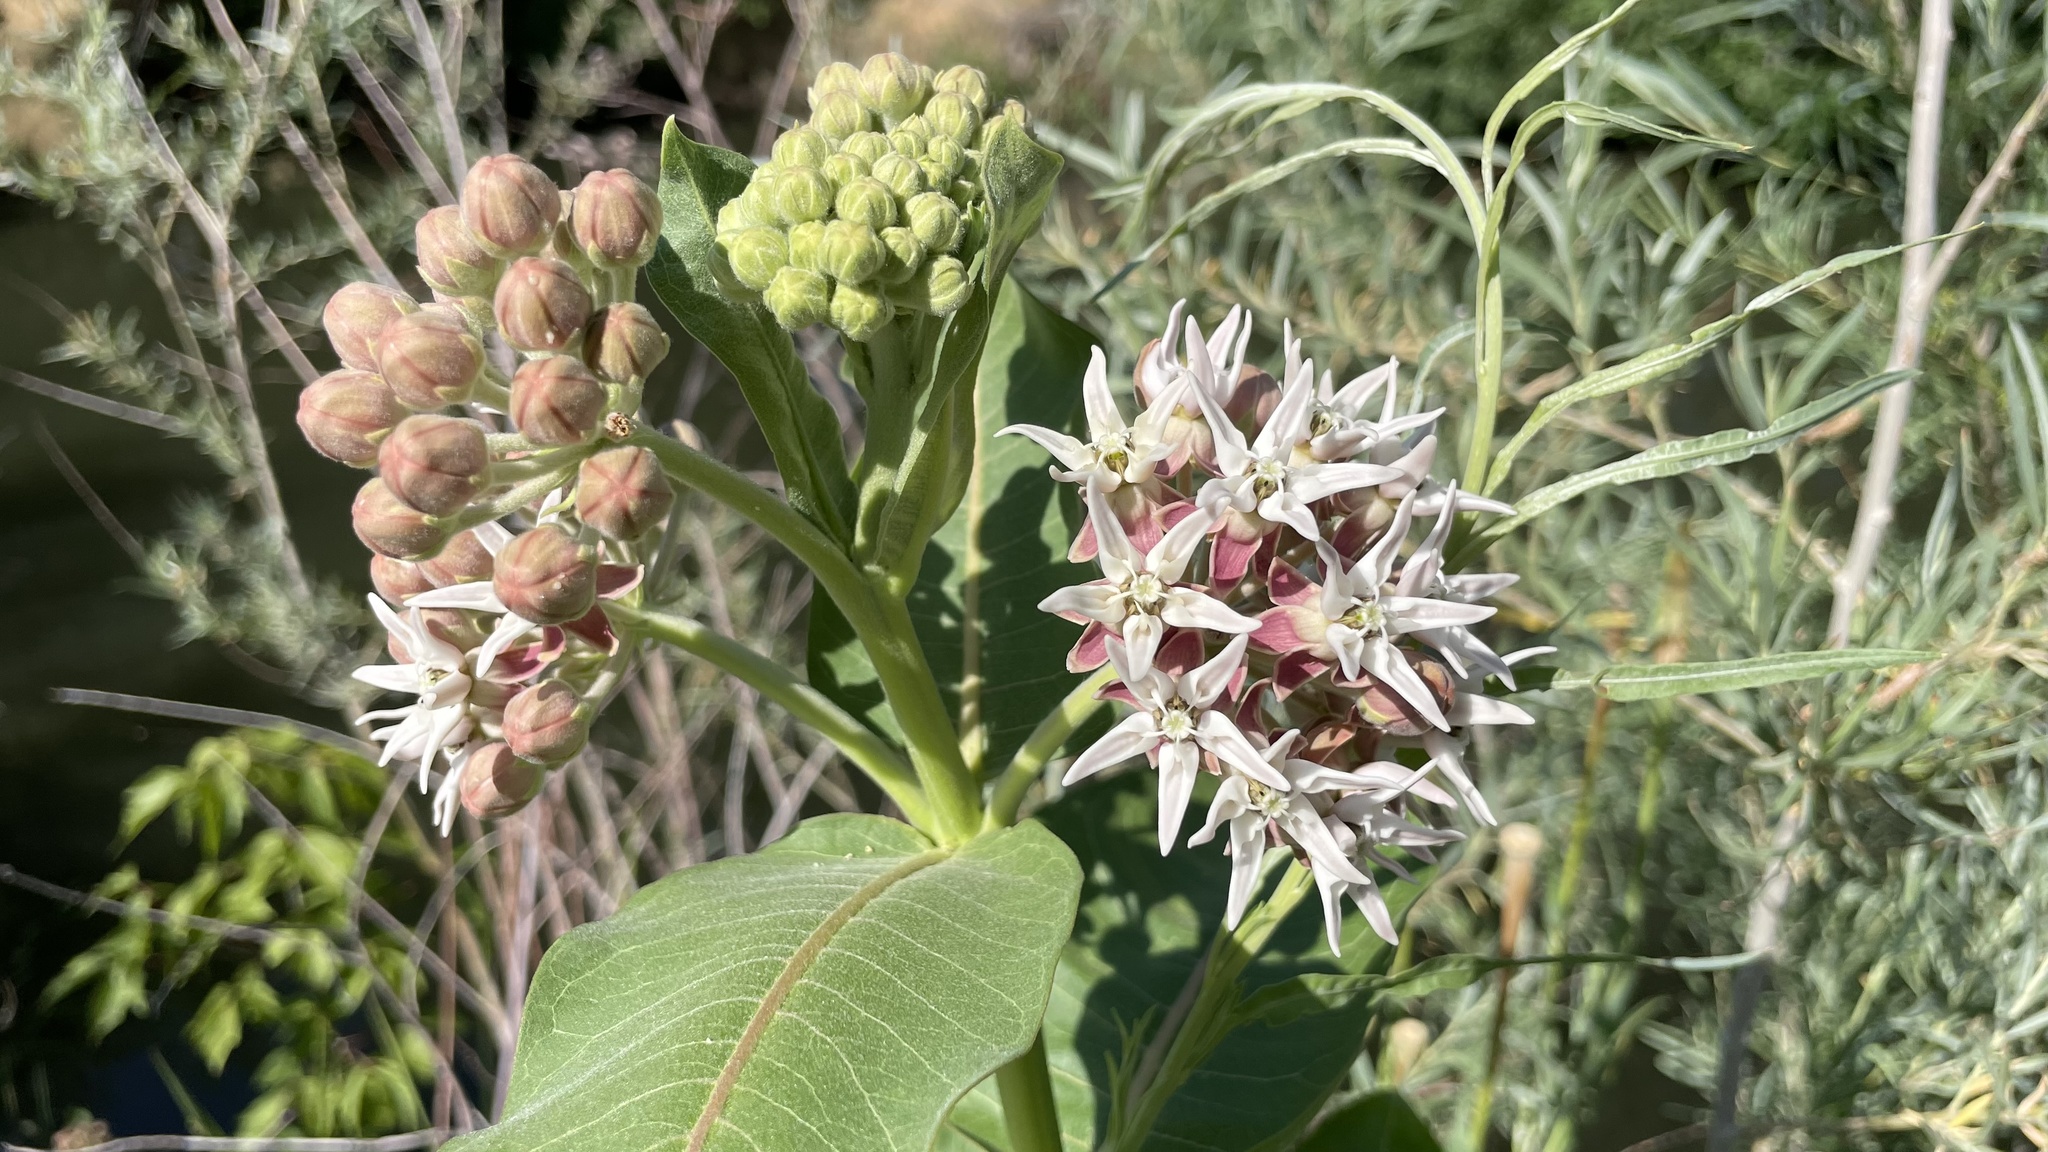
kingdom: Plantae
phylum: Tracheophyta
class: Magnoliopsida
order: Gentianales
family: Apocynaceae
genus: Asclepias
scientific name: Asclepias speciosa
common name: Showy milkweed
